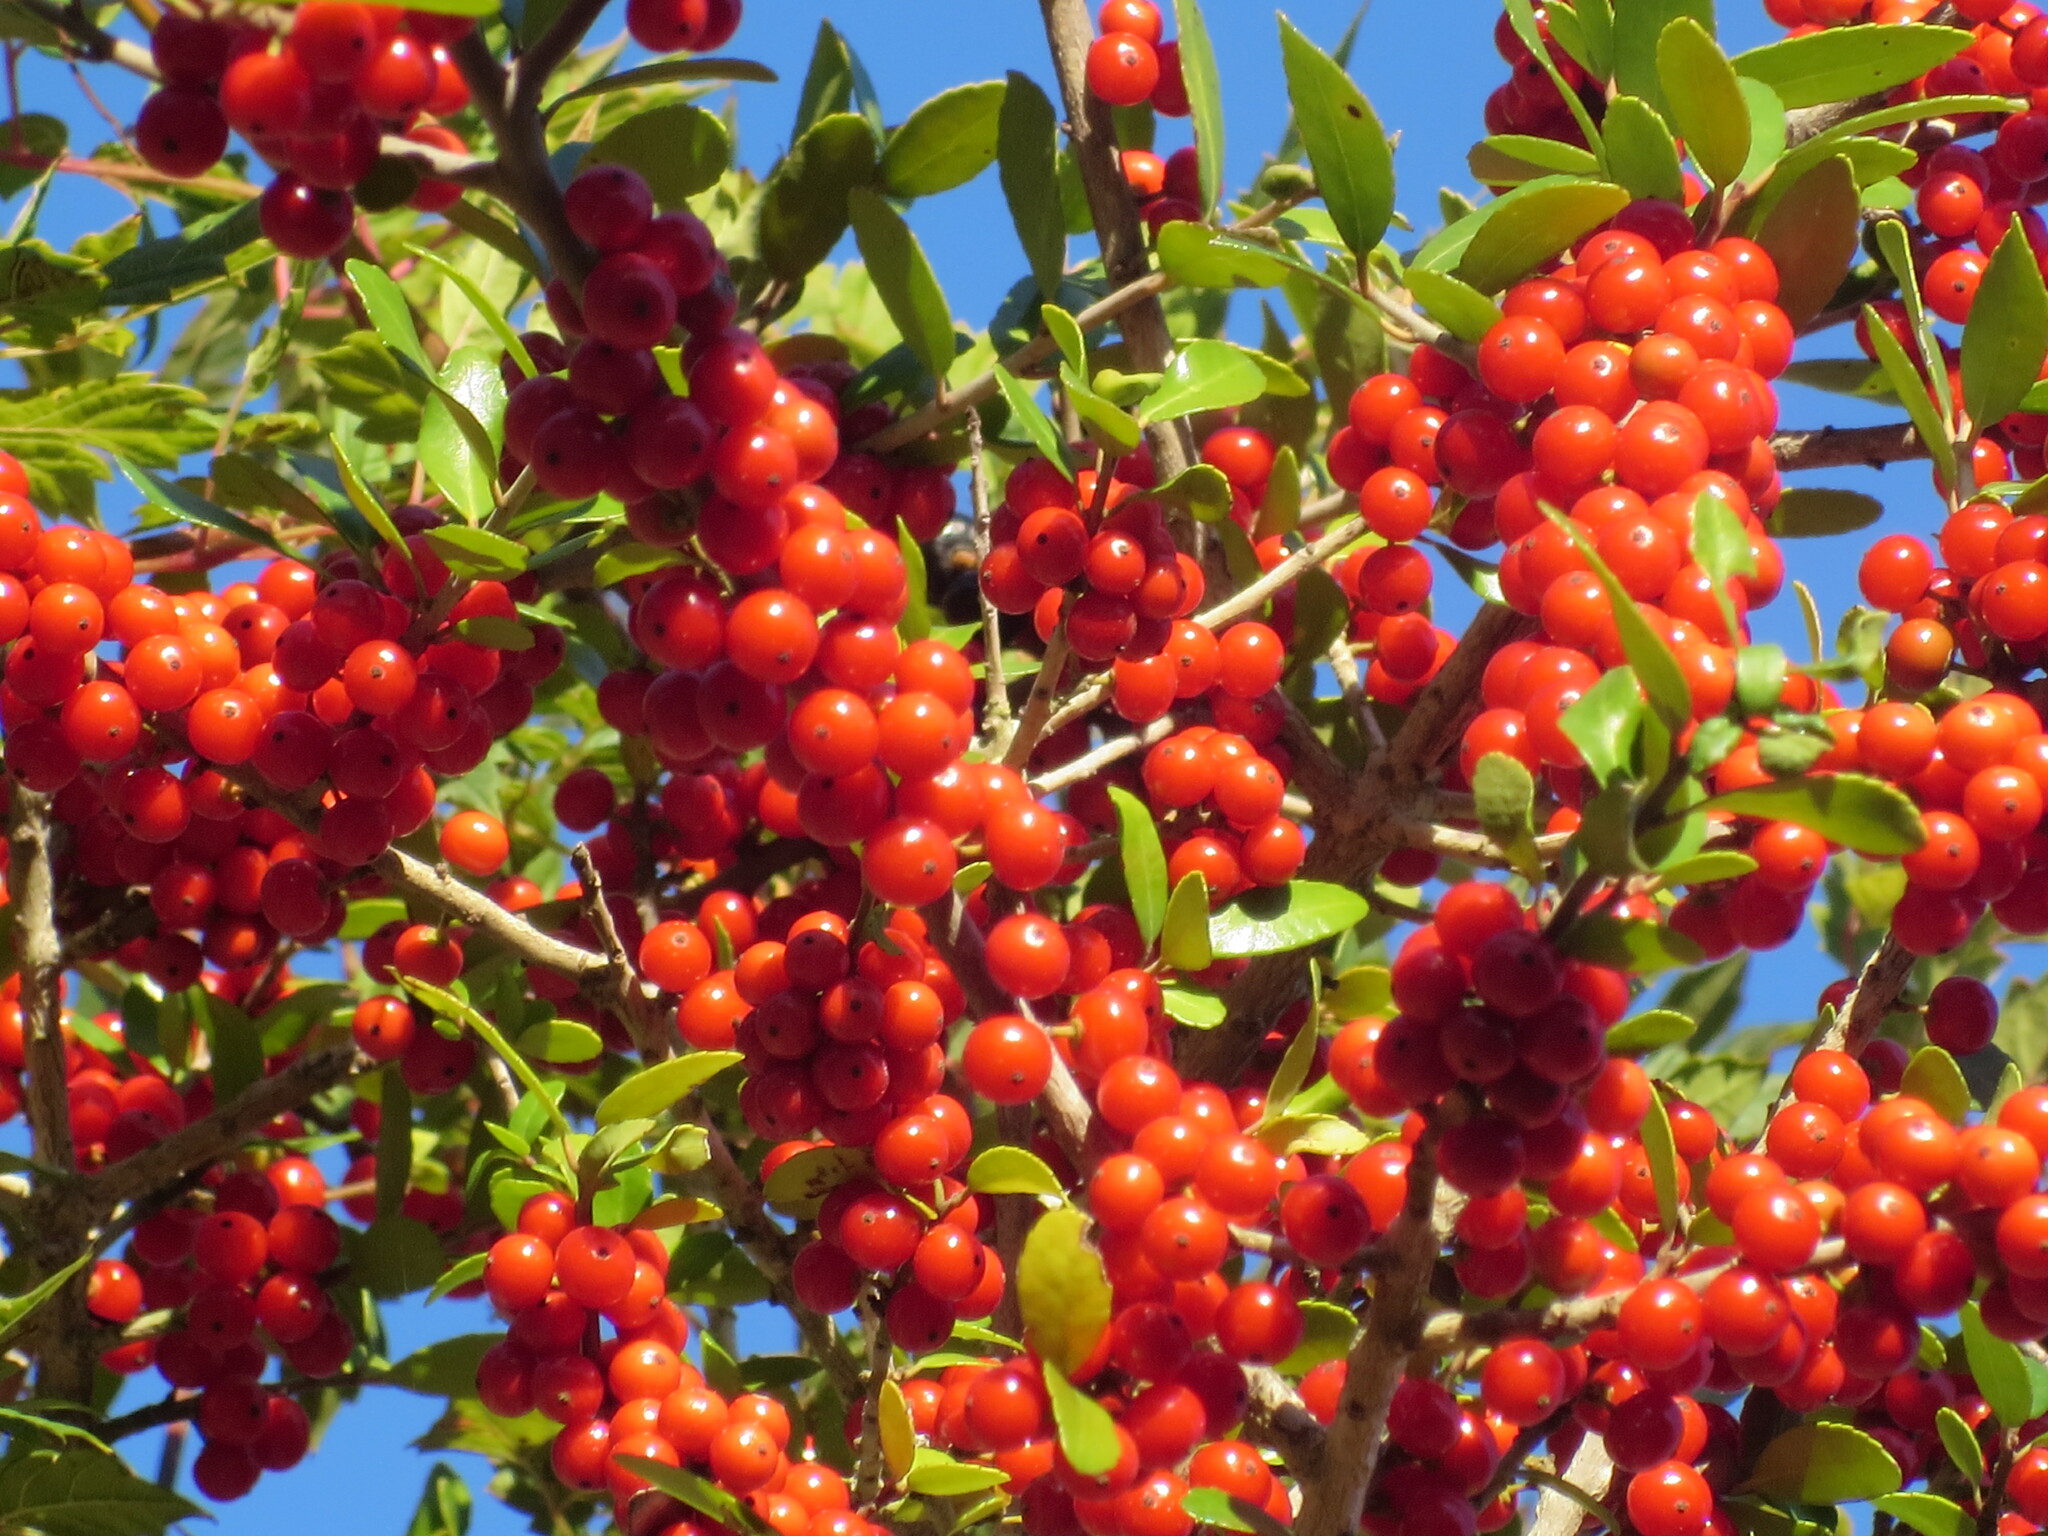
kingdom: Plantae
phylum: Tracheophyta
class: Magnoliopsida
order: Aquifoliales
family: Aquifoliaceae
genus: Ilex
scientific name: Ilex vomitoria
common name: Yaupon holly
